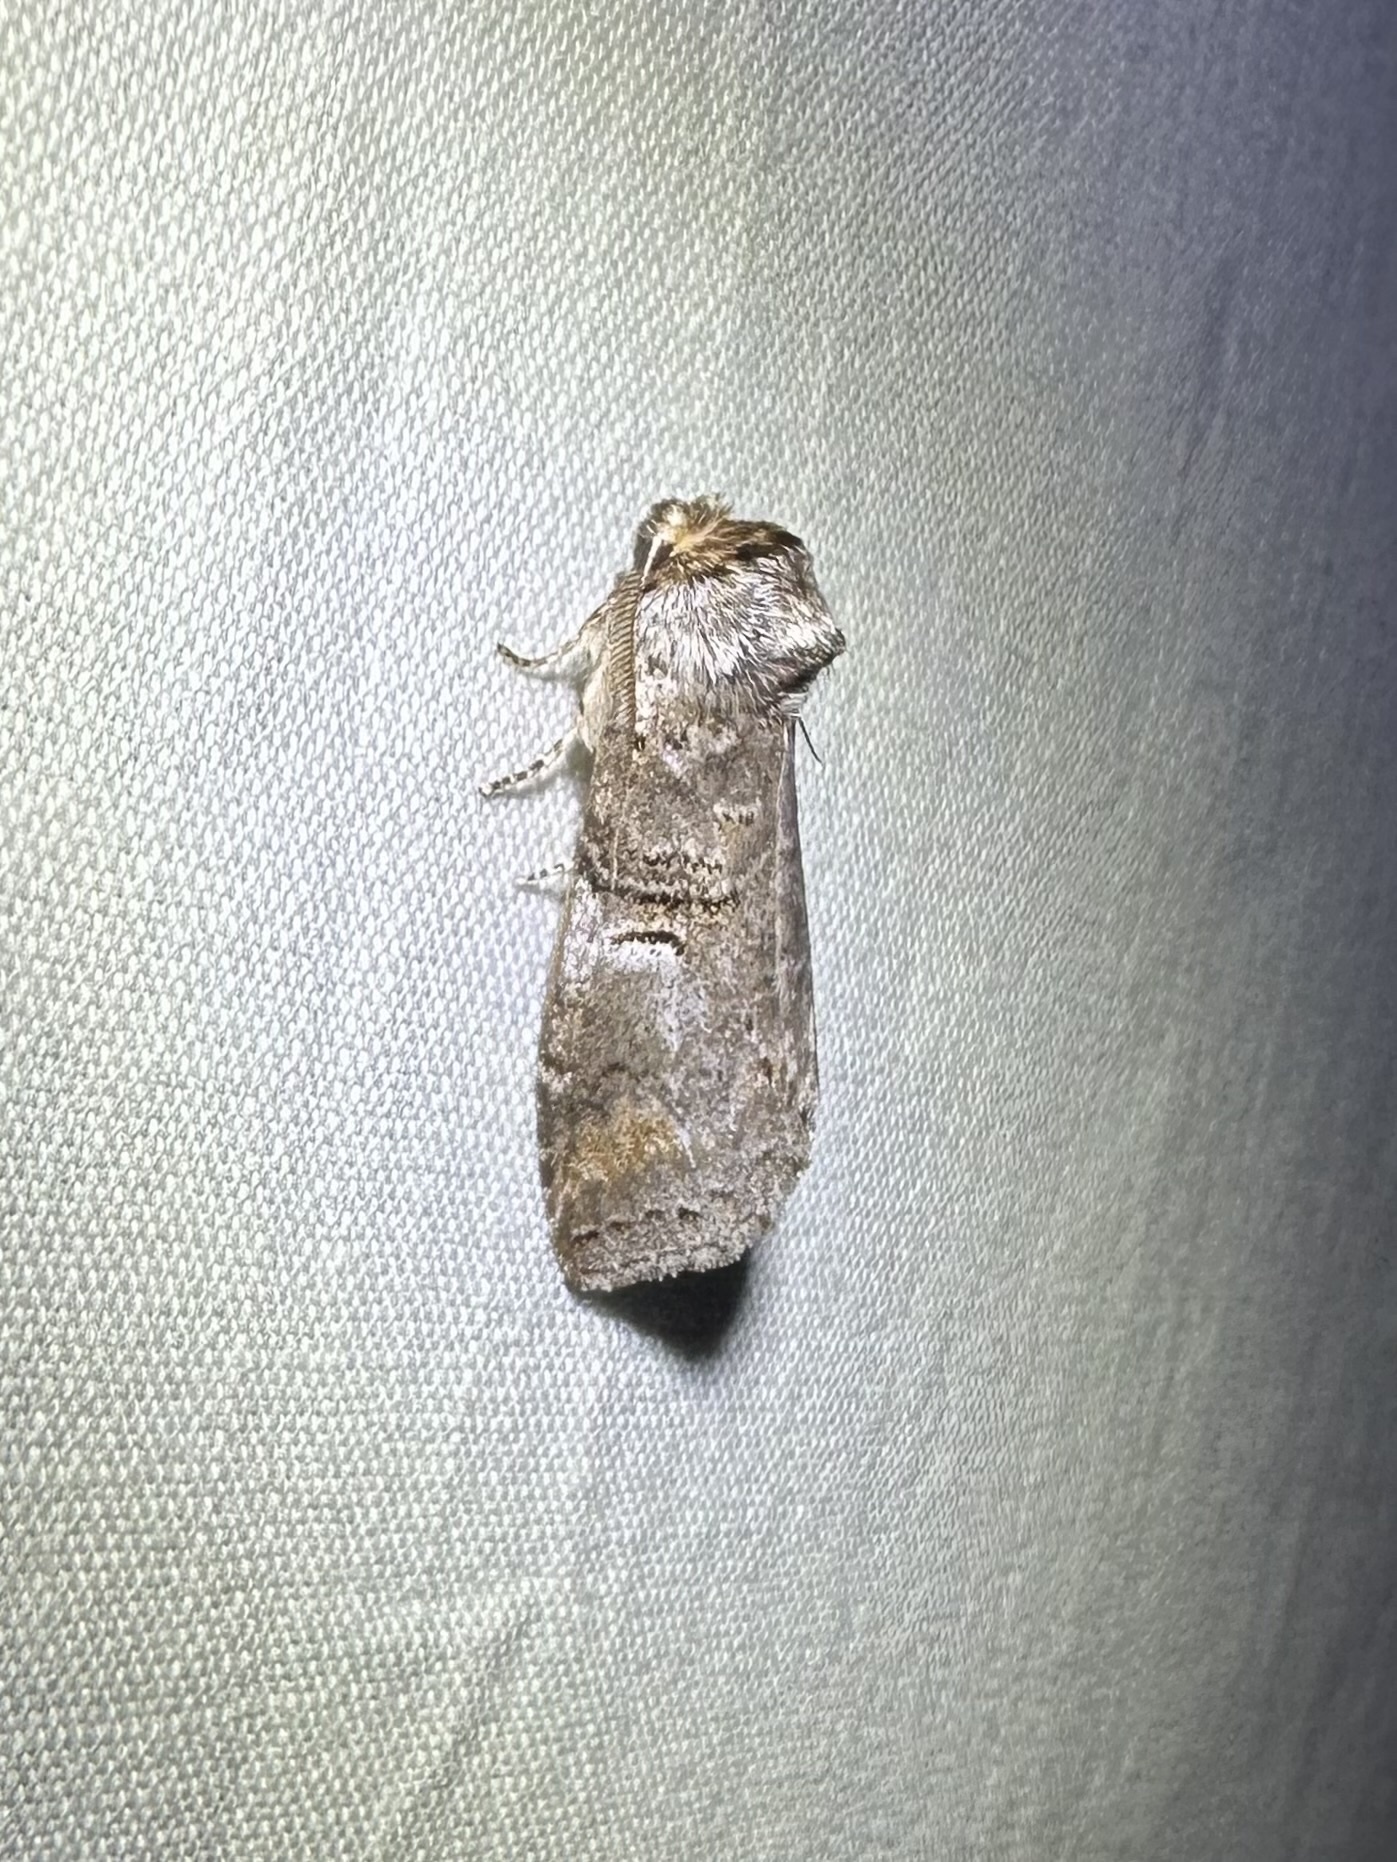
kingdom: Animalia
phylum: Arthropoda
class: Insecta
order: Lepidoptera
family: Notodontidae
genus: Ellida
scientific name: Ellida caniplaga
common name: Linden prominent
